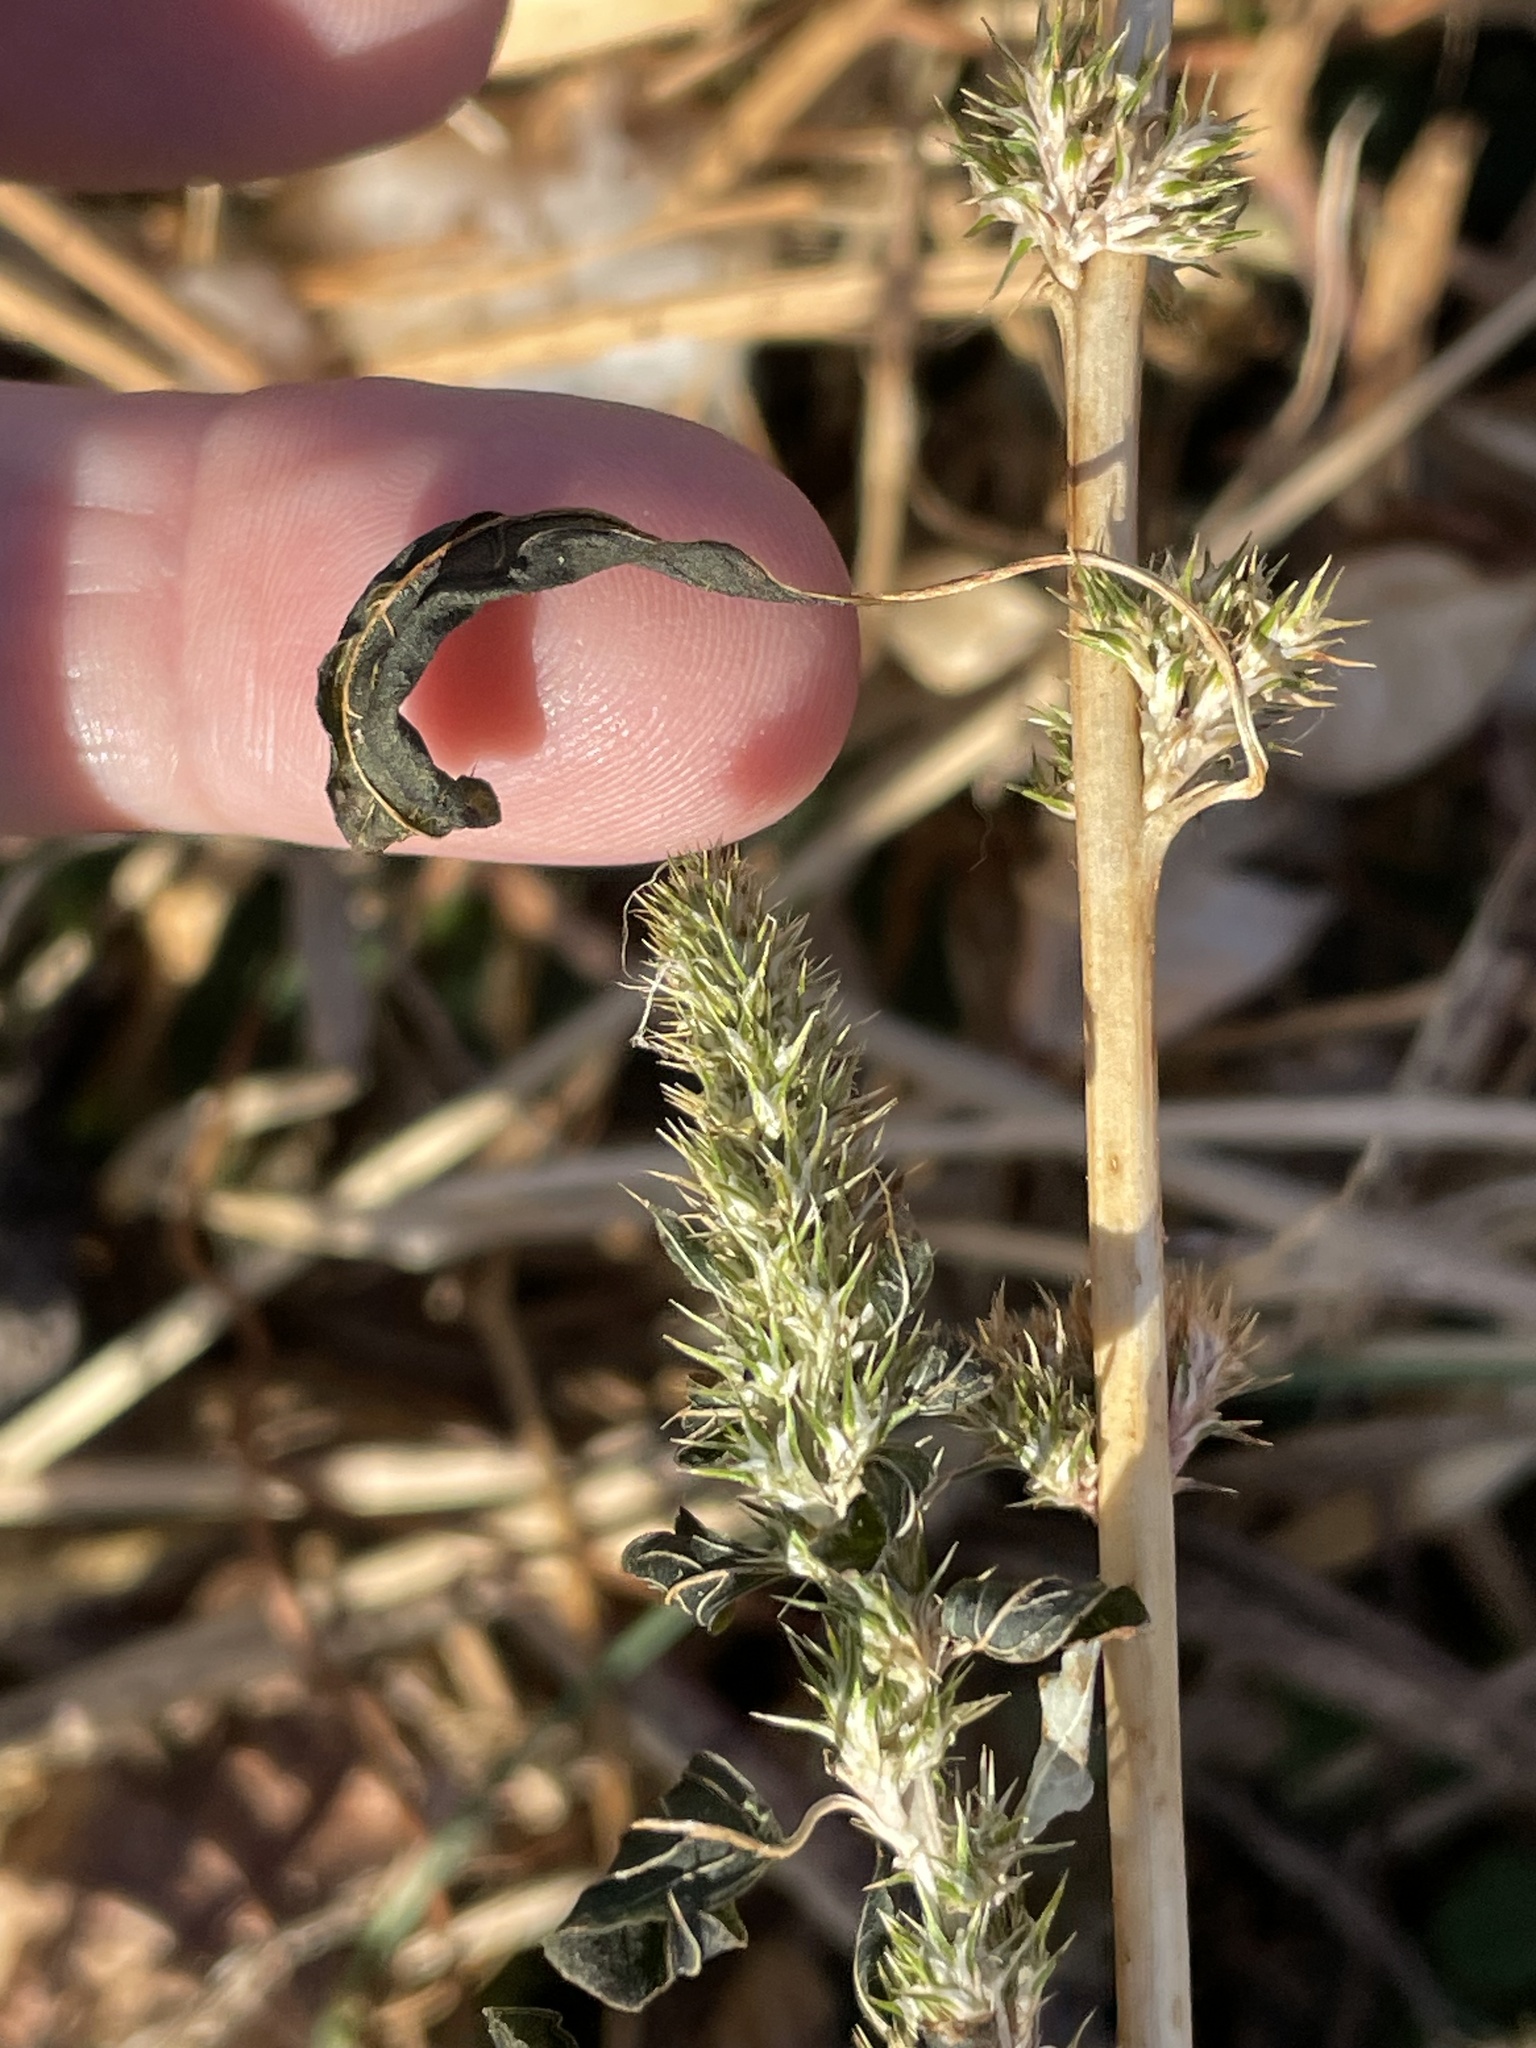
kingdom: Plantae
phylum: Tracheophyta
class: Magnoliopsida
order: Caryophyllales
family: Amaranthaceae
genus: Amaranthus
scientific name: Amaranthus palmeri
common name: Dioecious amaranth
